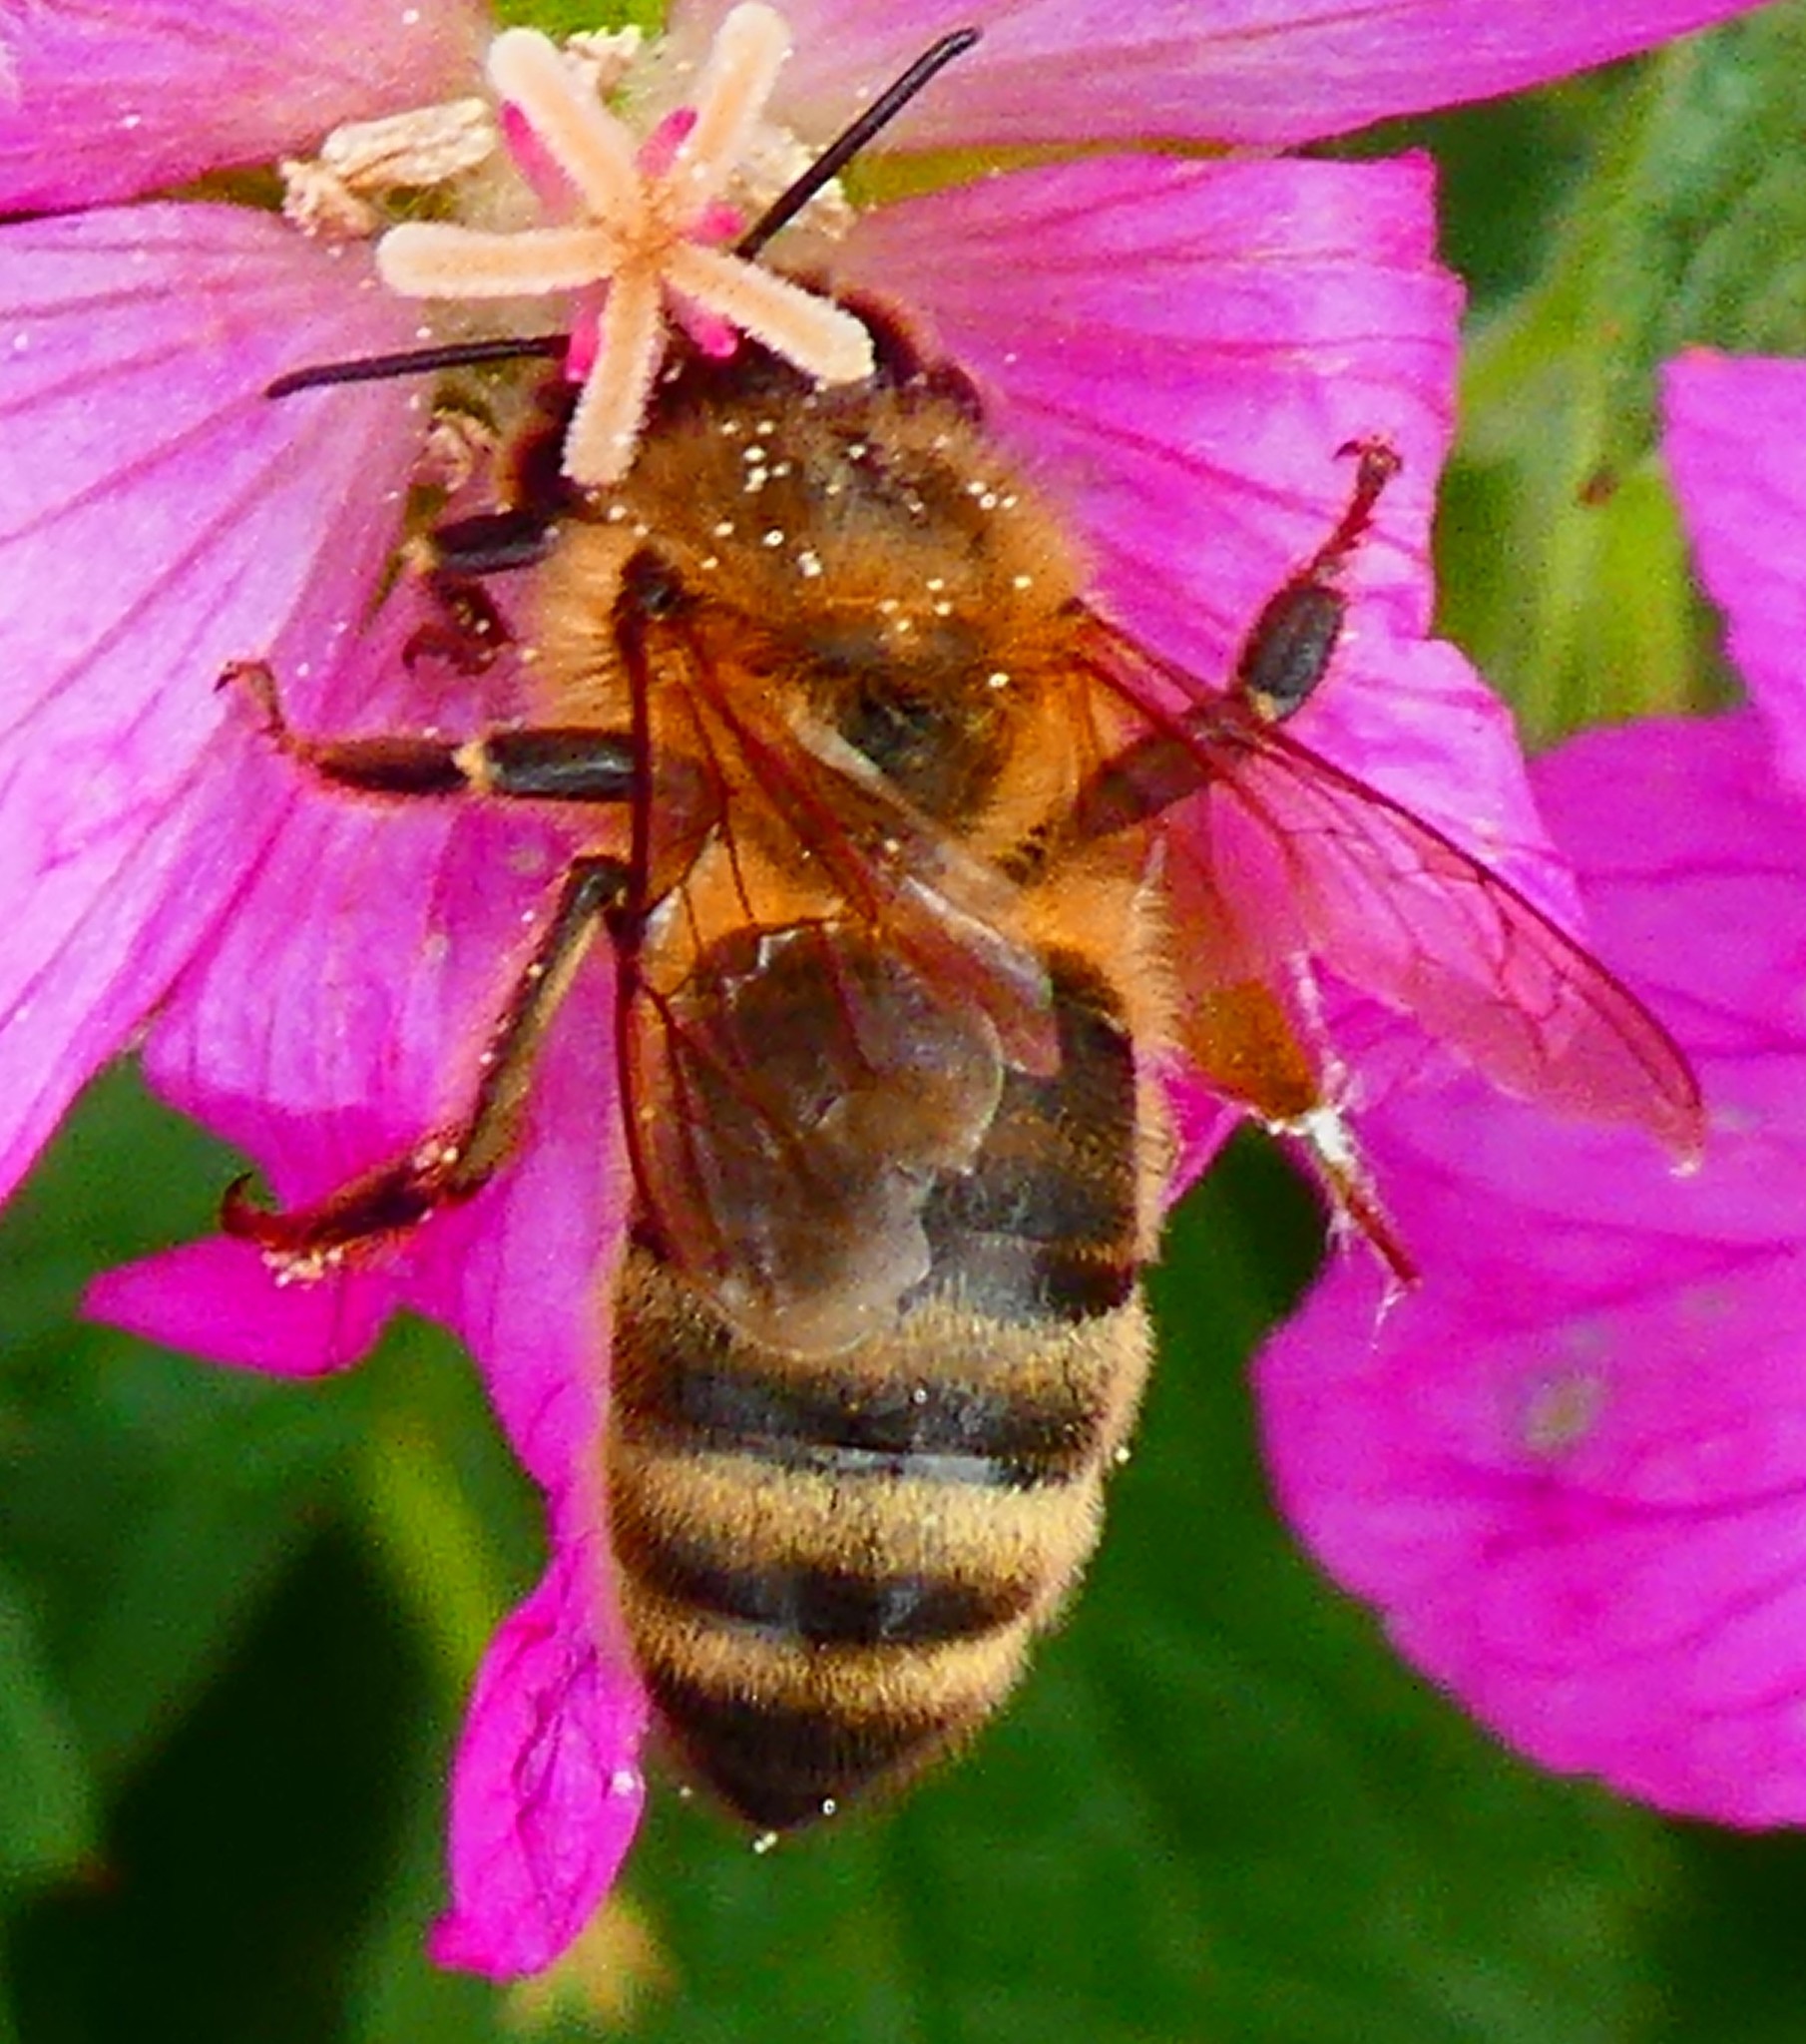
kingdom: Animalia
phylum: Arthropoda
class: Insecta
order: Hymenoptera
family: Apidae
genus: Apis
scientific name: Apis mellifera
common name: Honey bee
